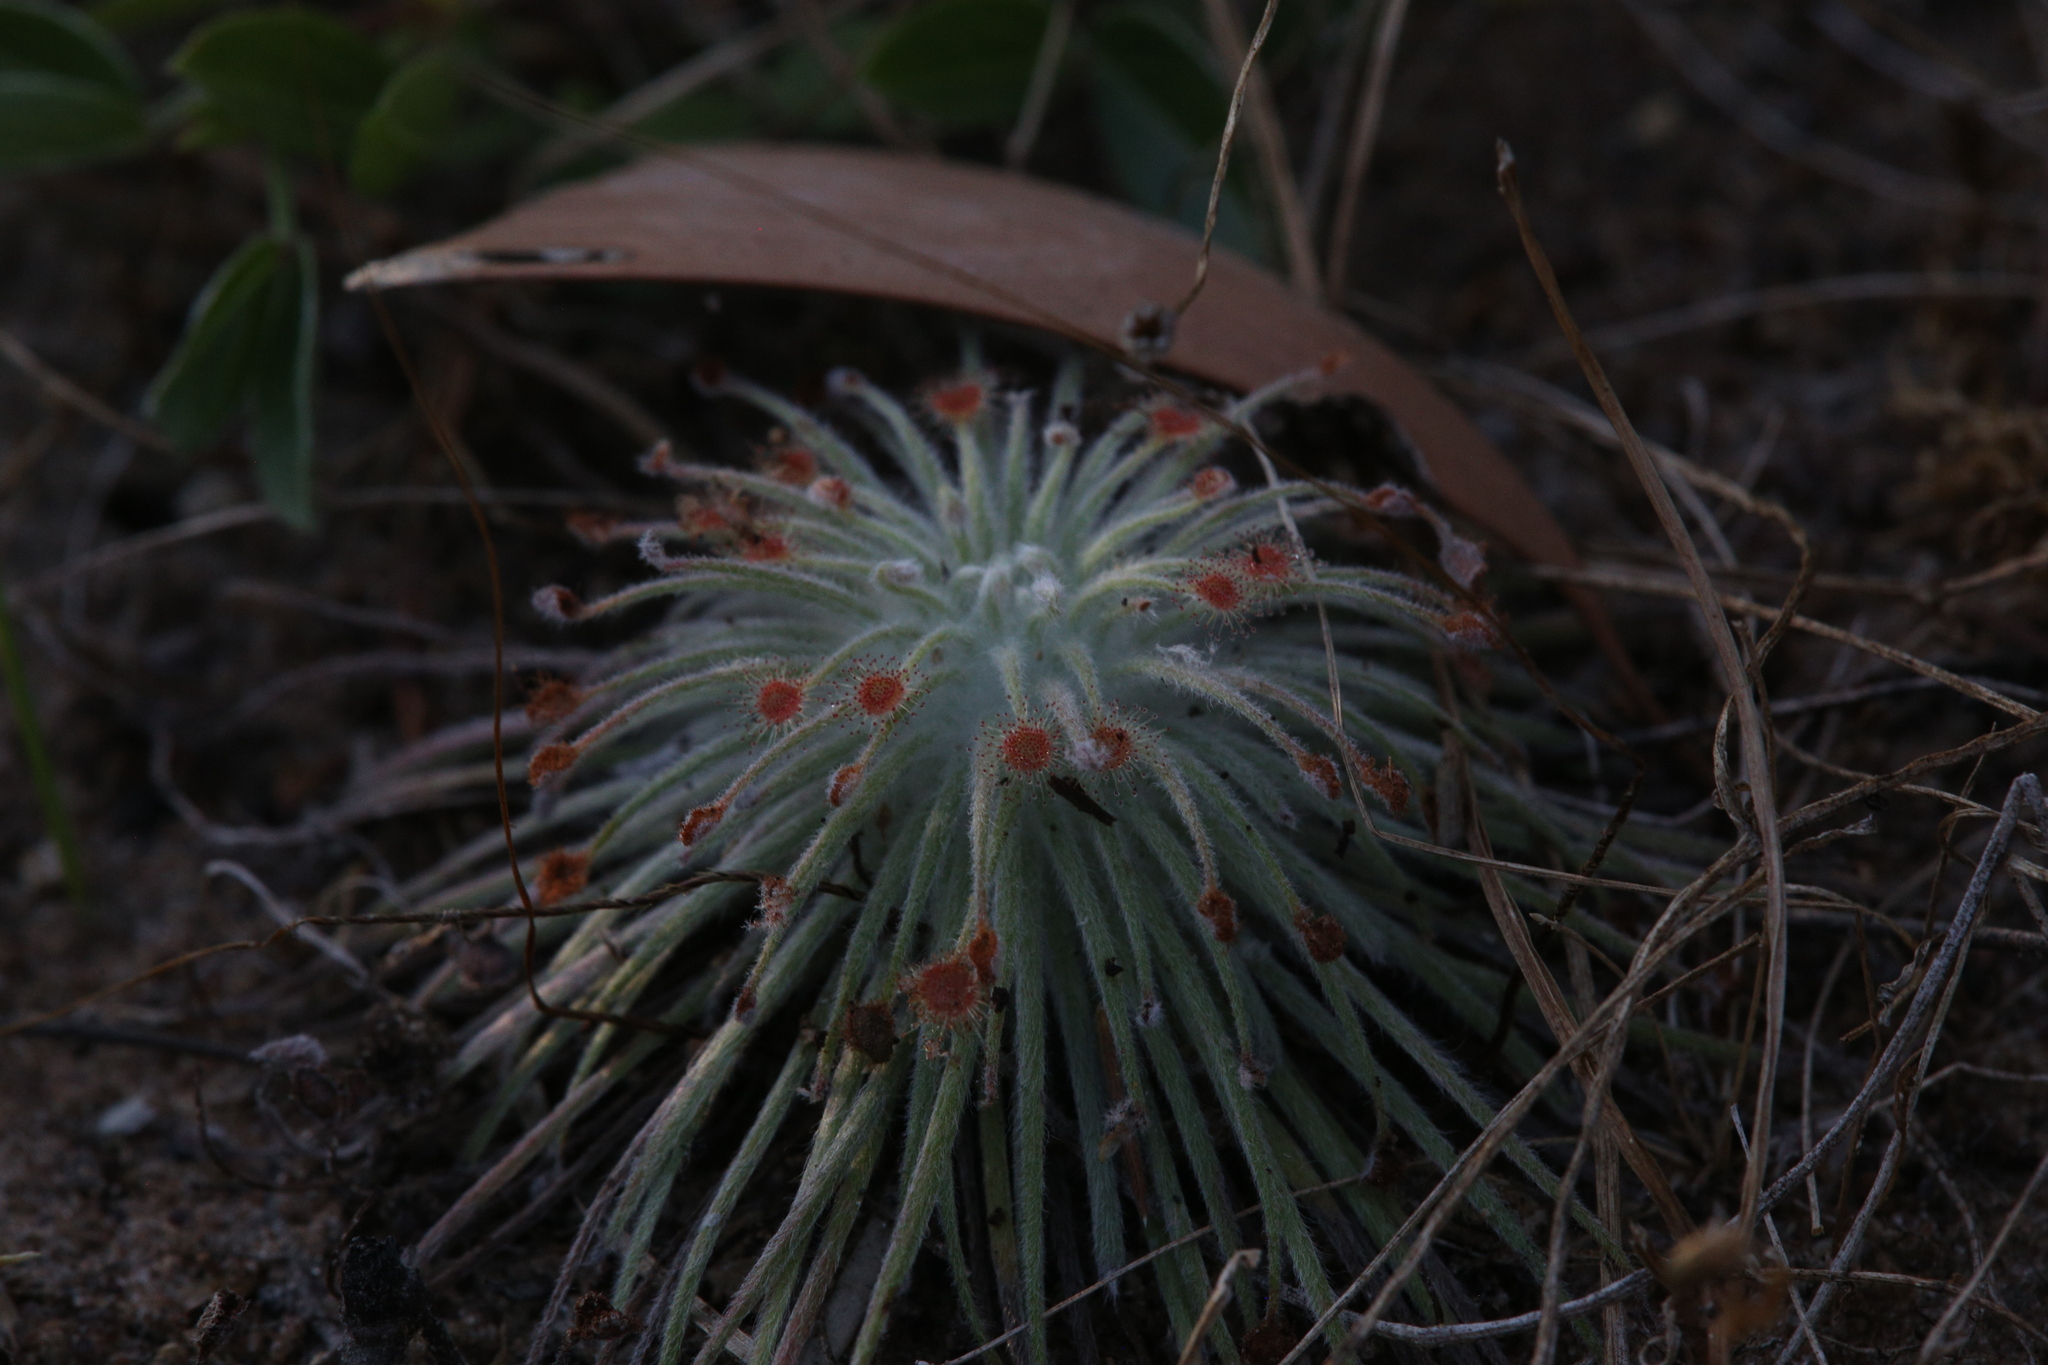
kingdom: Plantae
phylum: Tracheophyta
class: Magnoliopsida
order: Caryophyllales
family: Droseraceae
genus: Drosera
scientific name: Drosera broomensis
